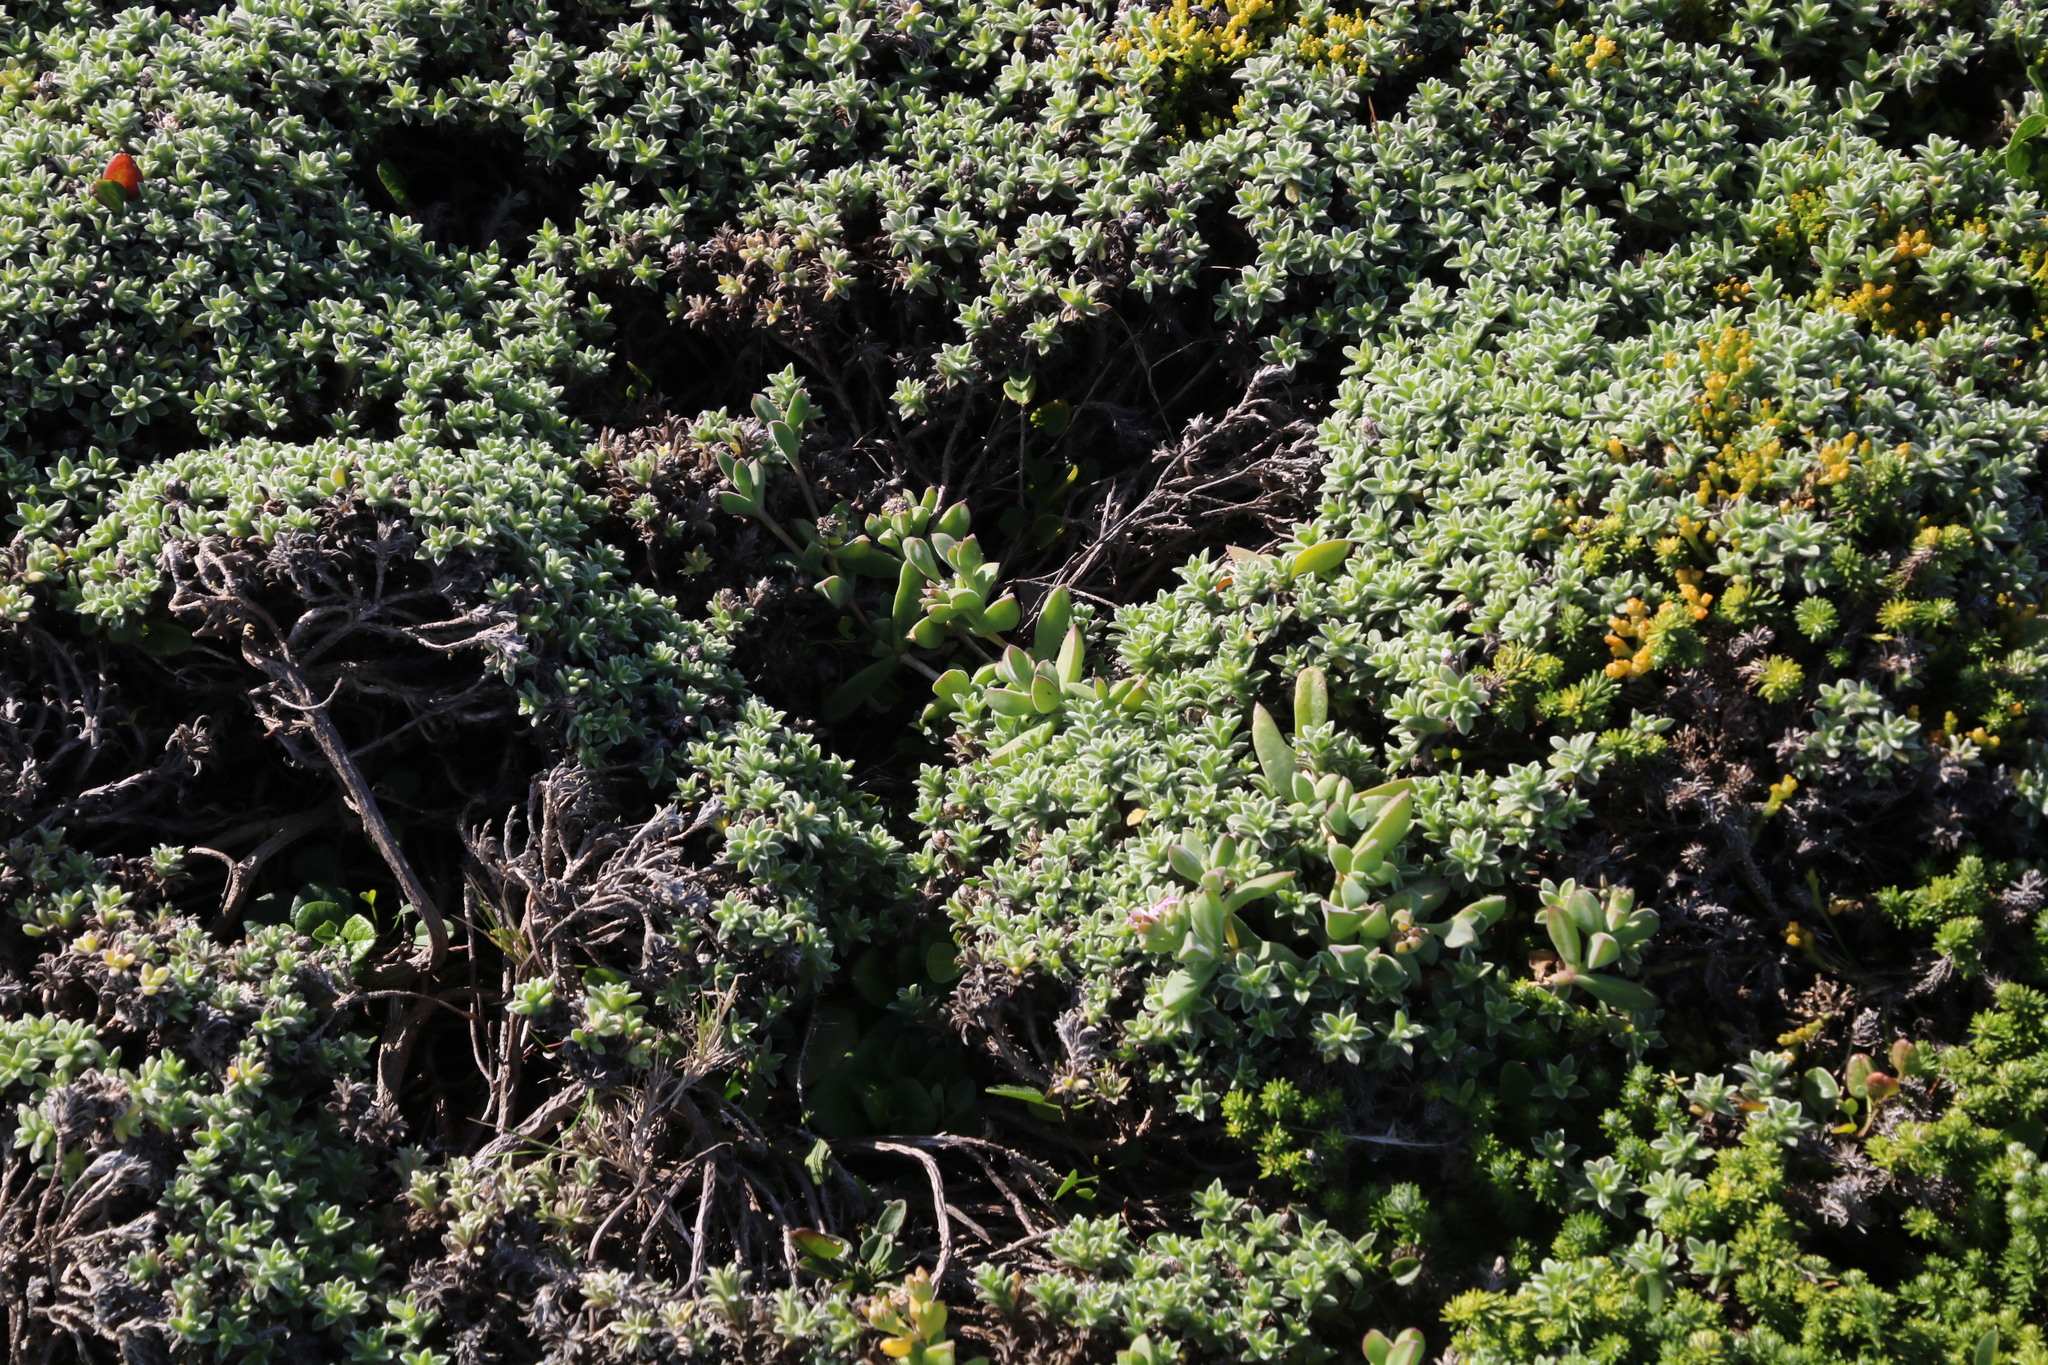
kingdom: Plantae
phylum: Tracheophyta
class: Magnoliopsida
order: Caryophyllales
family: Aizoaceae
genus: Delosperma
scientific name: Delosperma patersoniae
